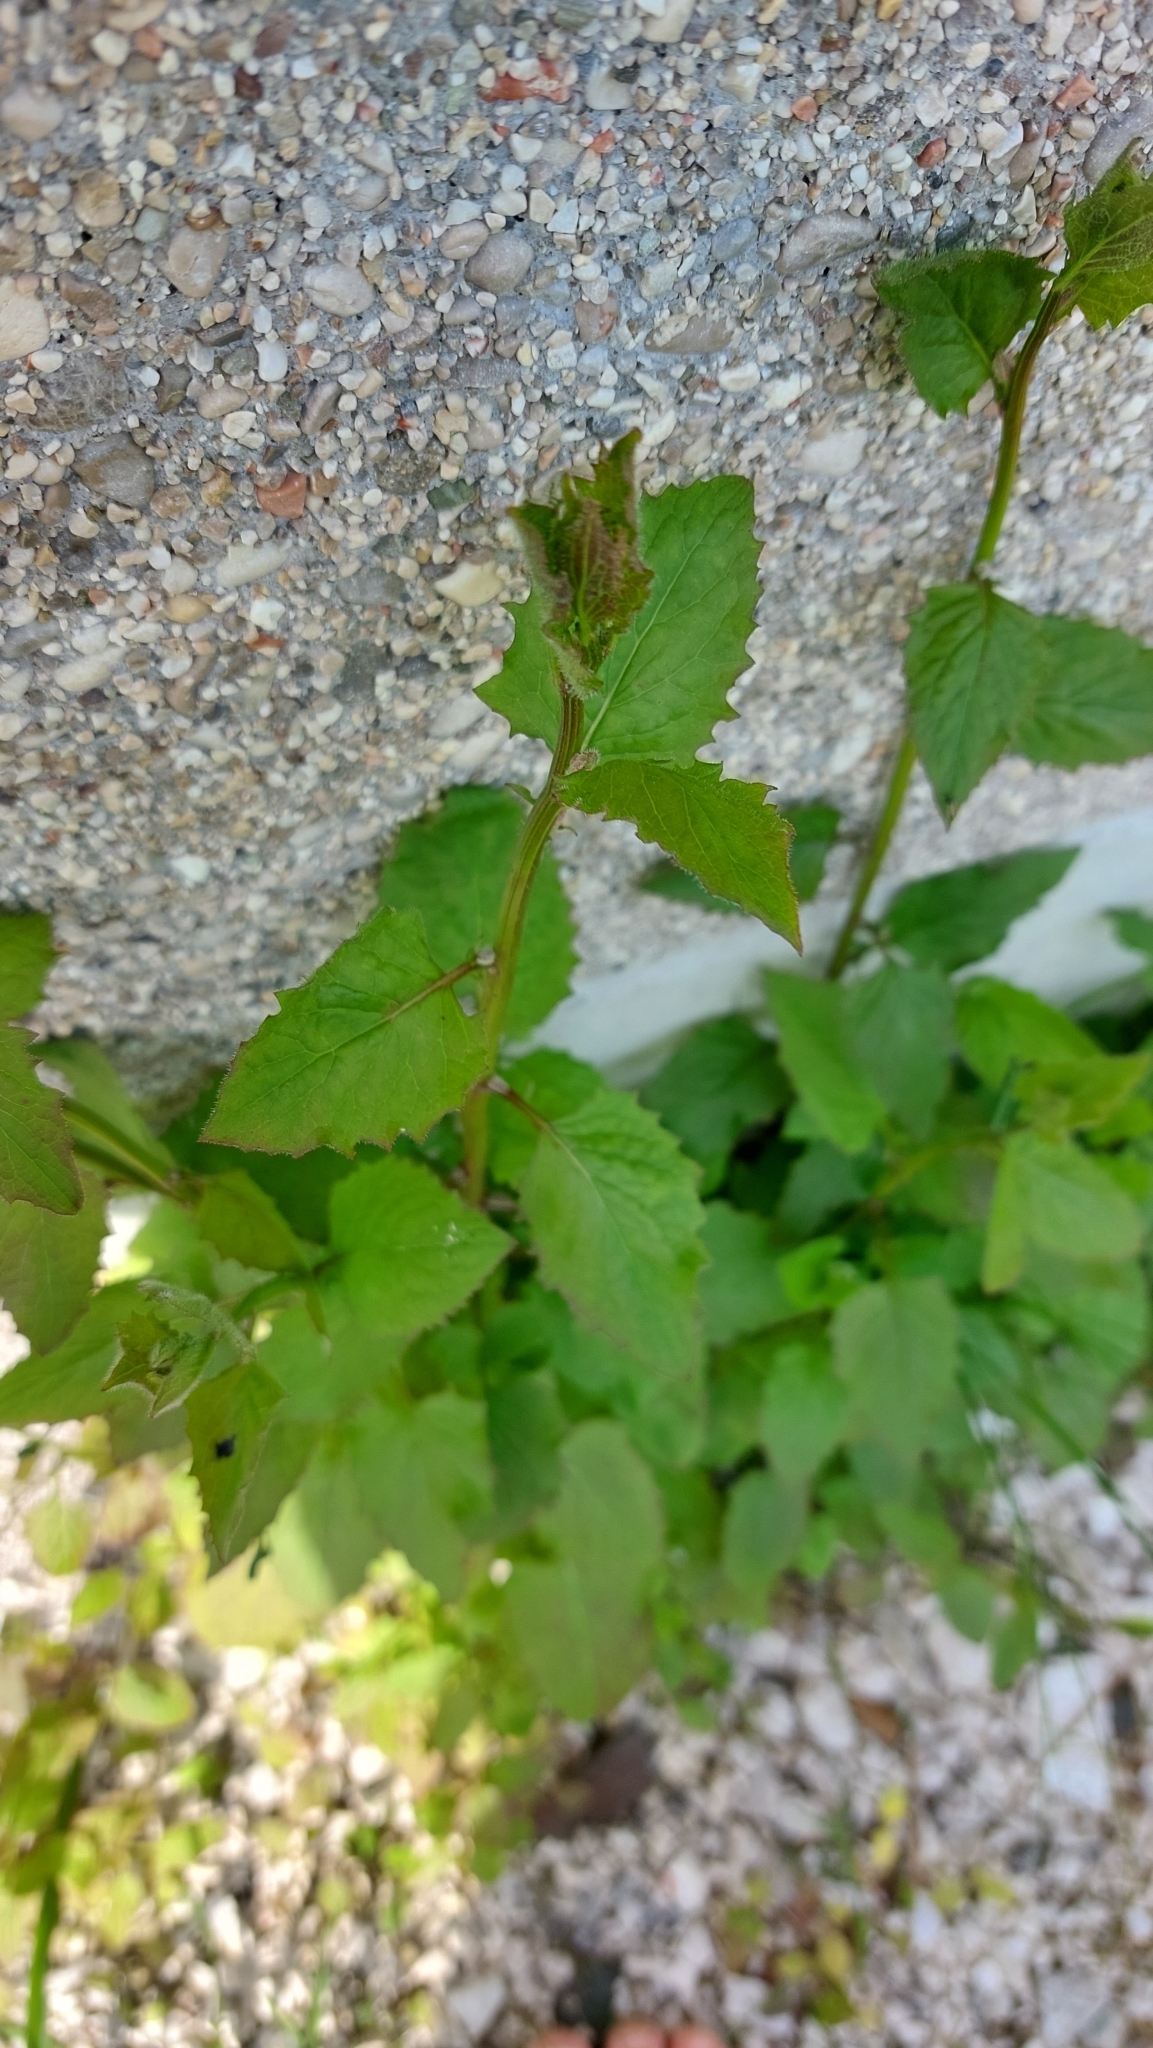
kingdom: Plantae
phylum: Tracheophyta
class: Magnoliopsida
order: Brassicales
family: Brassicaceae
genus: Alliaria
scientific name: Alliaria petiolata
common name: Garlic mustard
